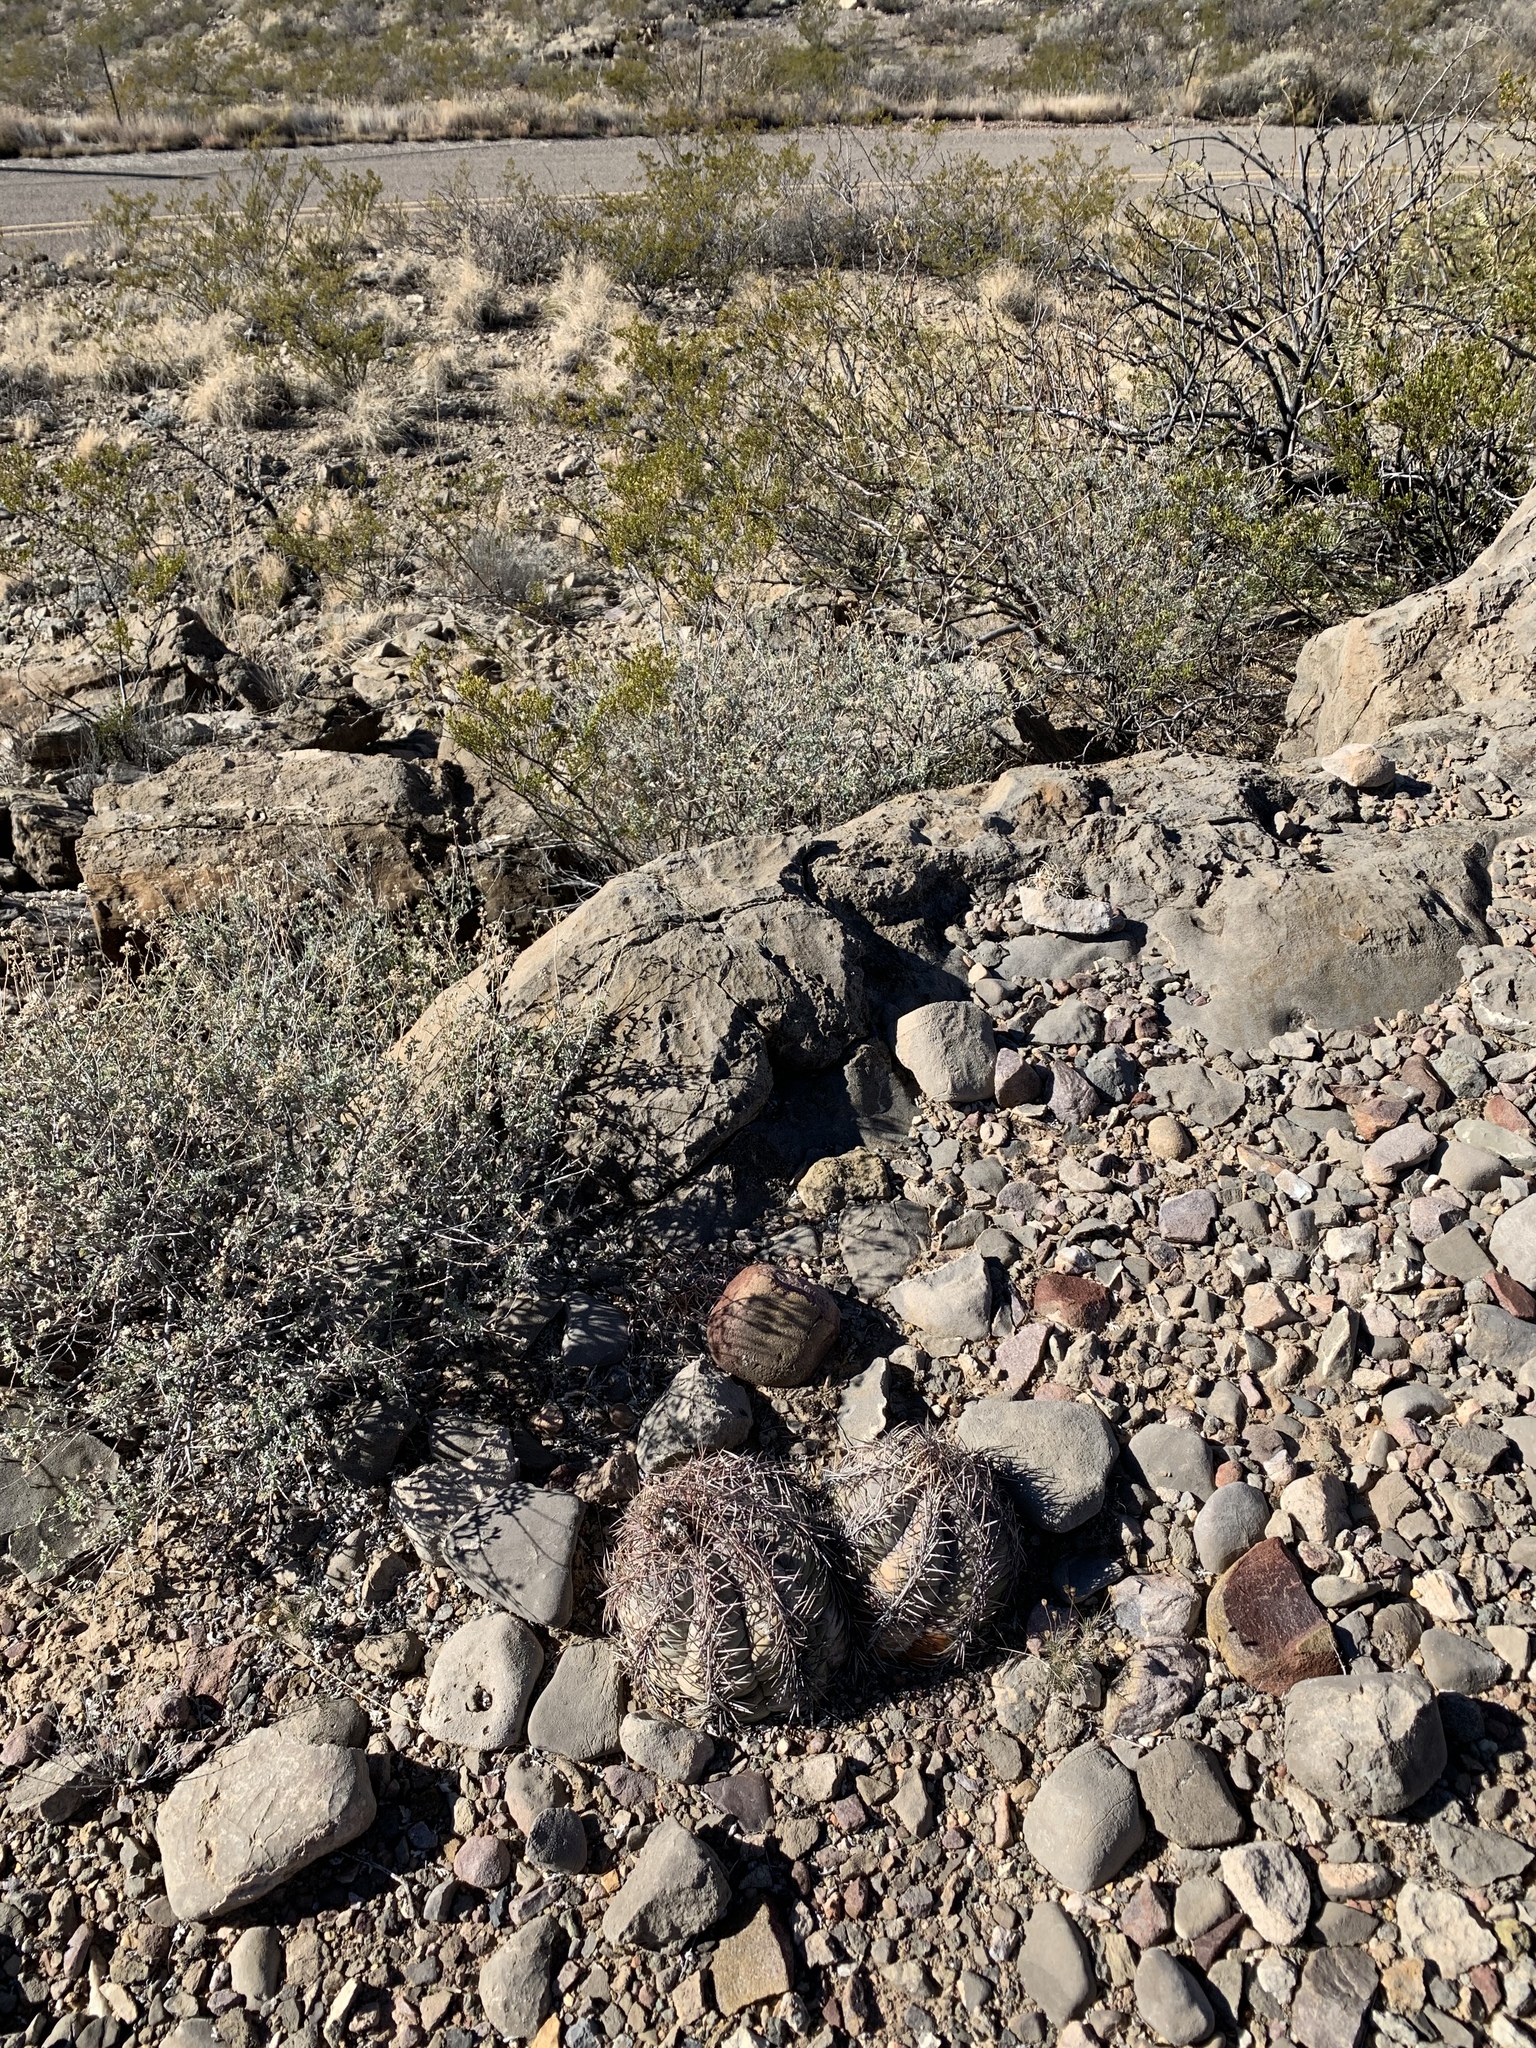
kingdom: Plantae
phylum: Tracheophyta
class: Magnoliopsida
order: Caryophyllales
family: Cactaceae
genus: Echinocactus
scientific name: Echinocactus horizonthalonius
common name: Devilshead
